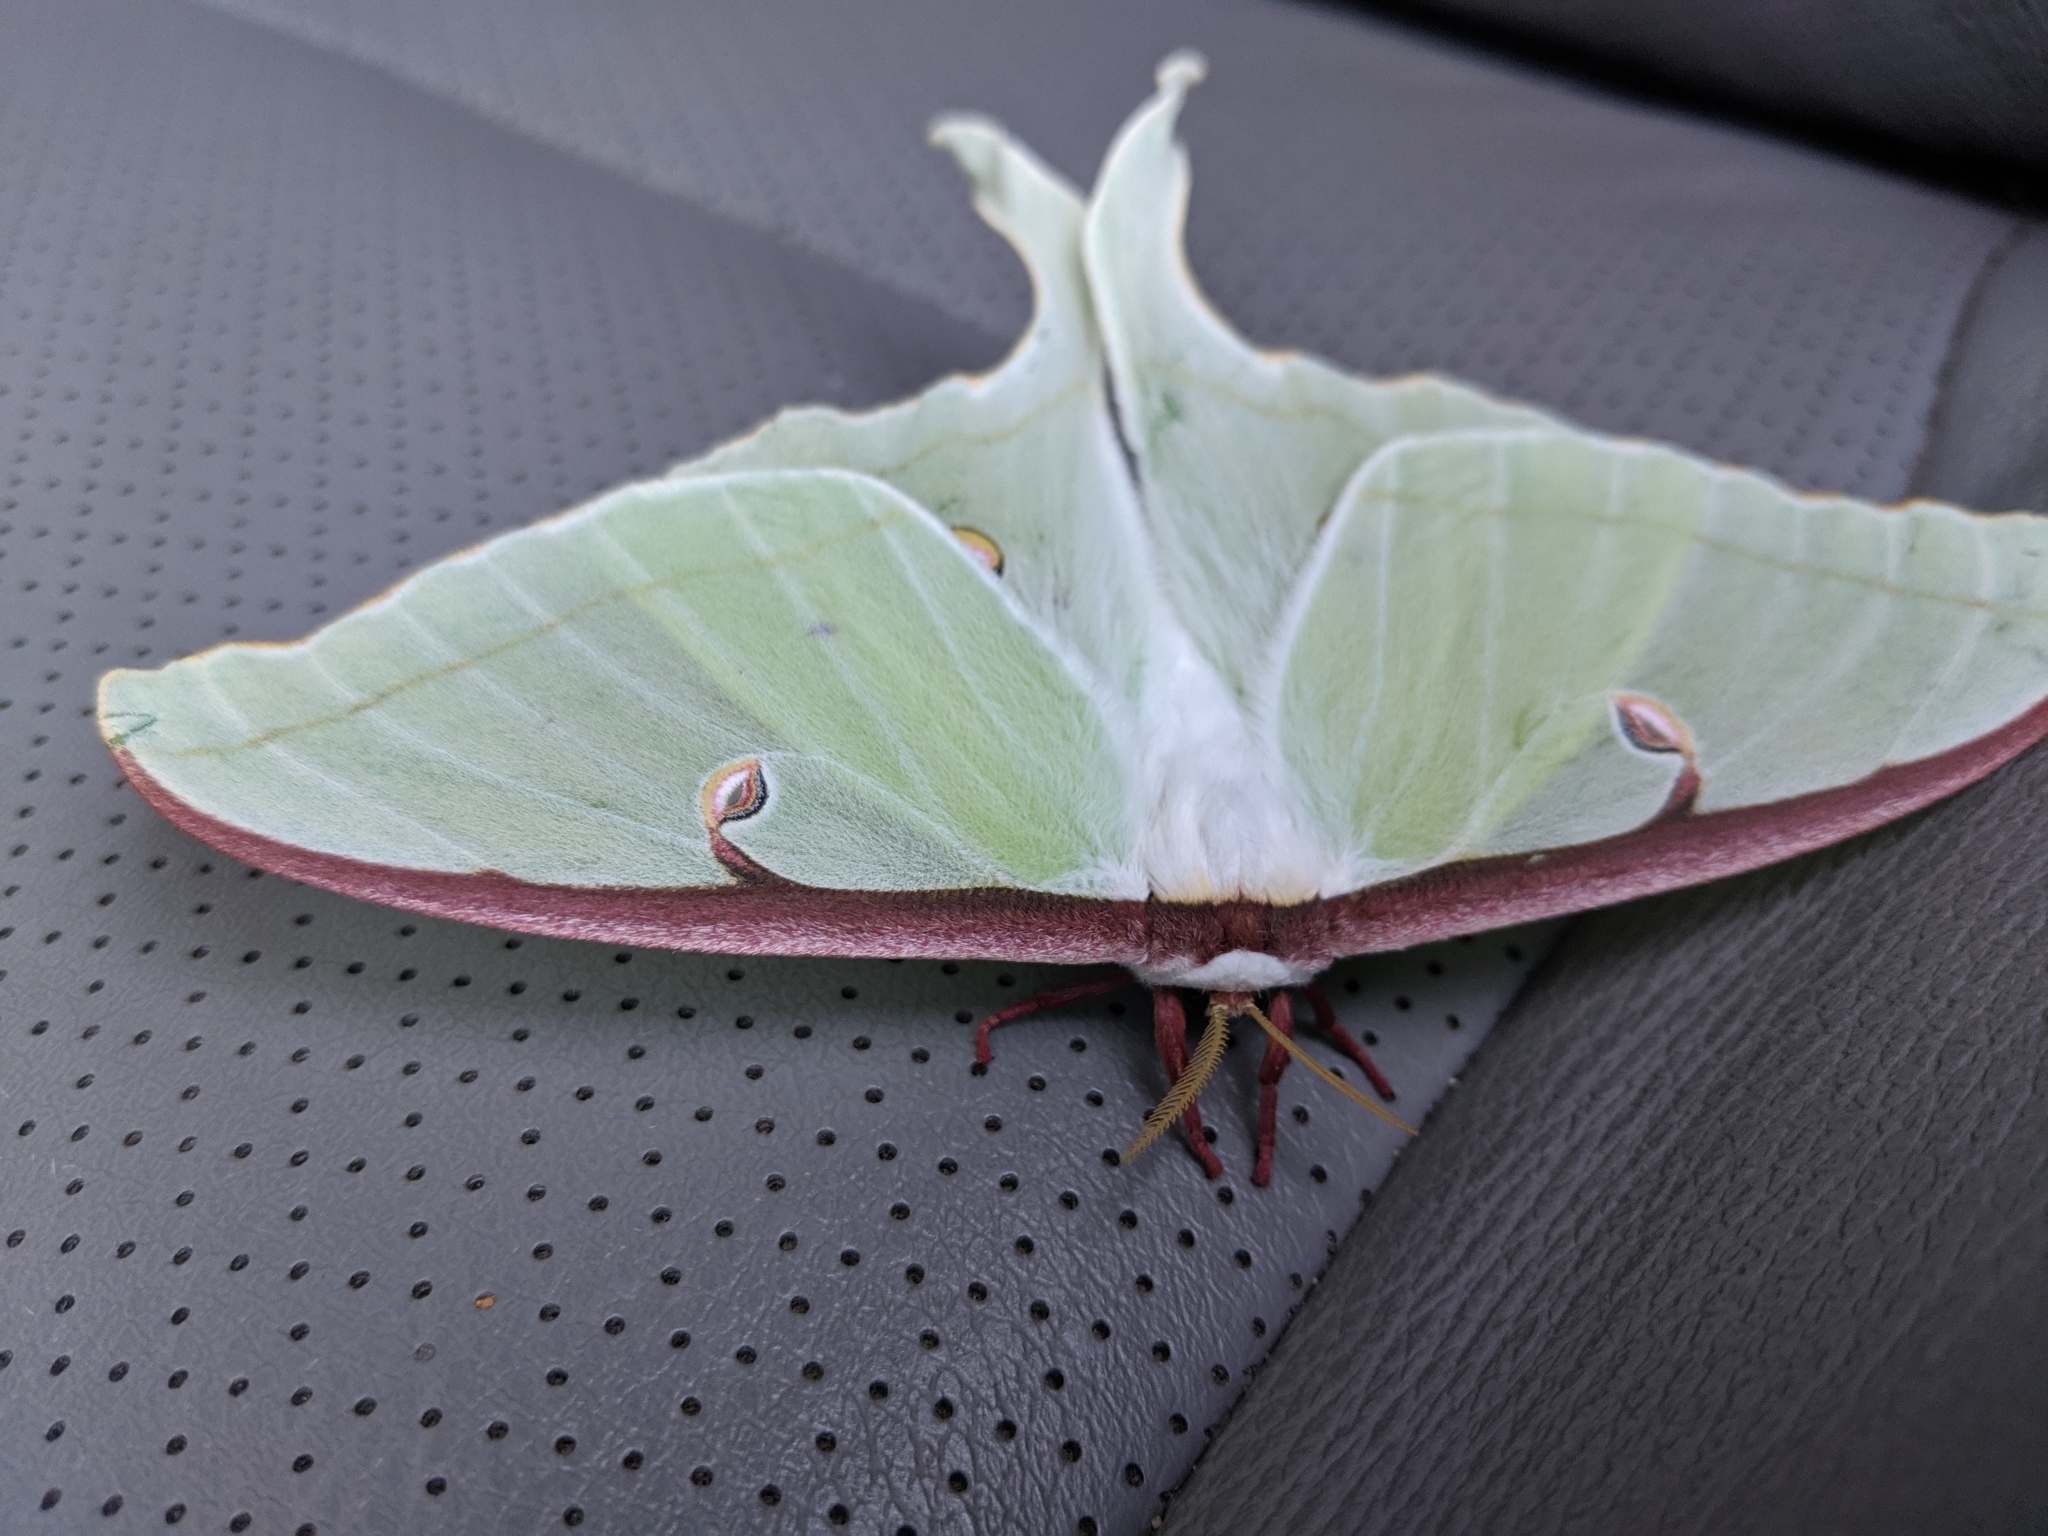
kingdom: Animalia
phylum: Arthropoda
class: Insecta
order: Lepidoptera
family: Saturniidae
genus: Actias
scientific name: Actias luna
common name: Luna moth
